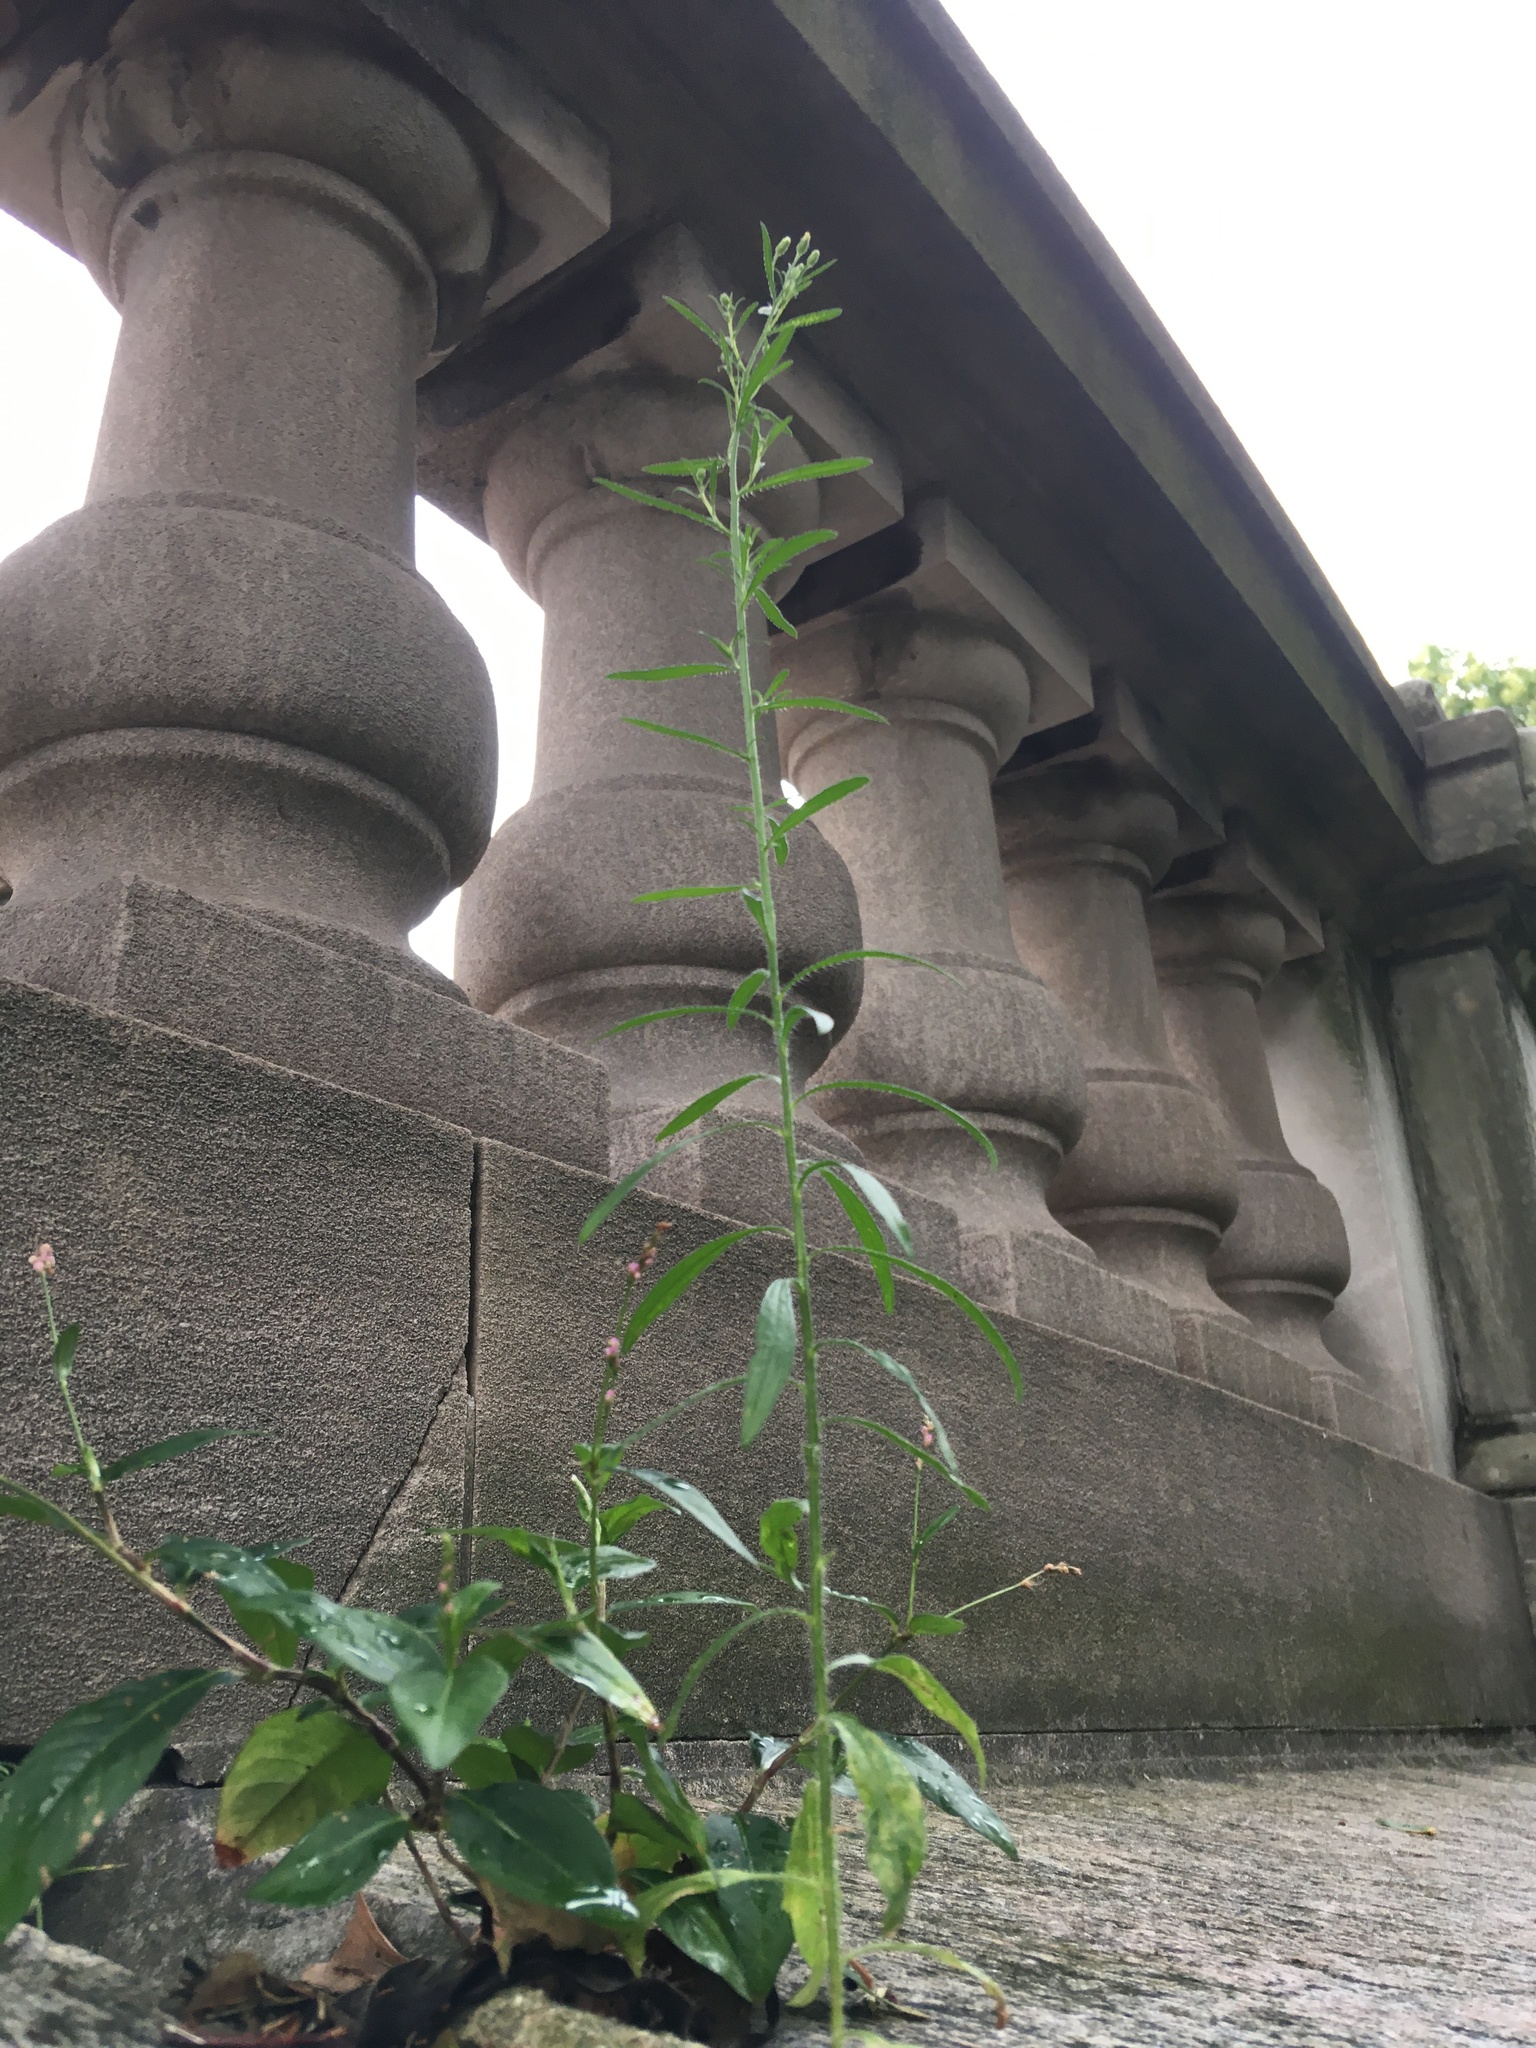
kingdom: Plantae
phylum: Tracheophyta
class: Magnoliopsida
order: Asterales
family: Asteraceae
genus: Erigeron
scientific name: Erigeron canadensis
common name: Canadian fleabane
